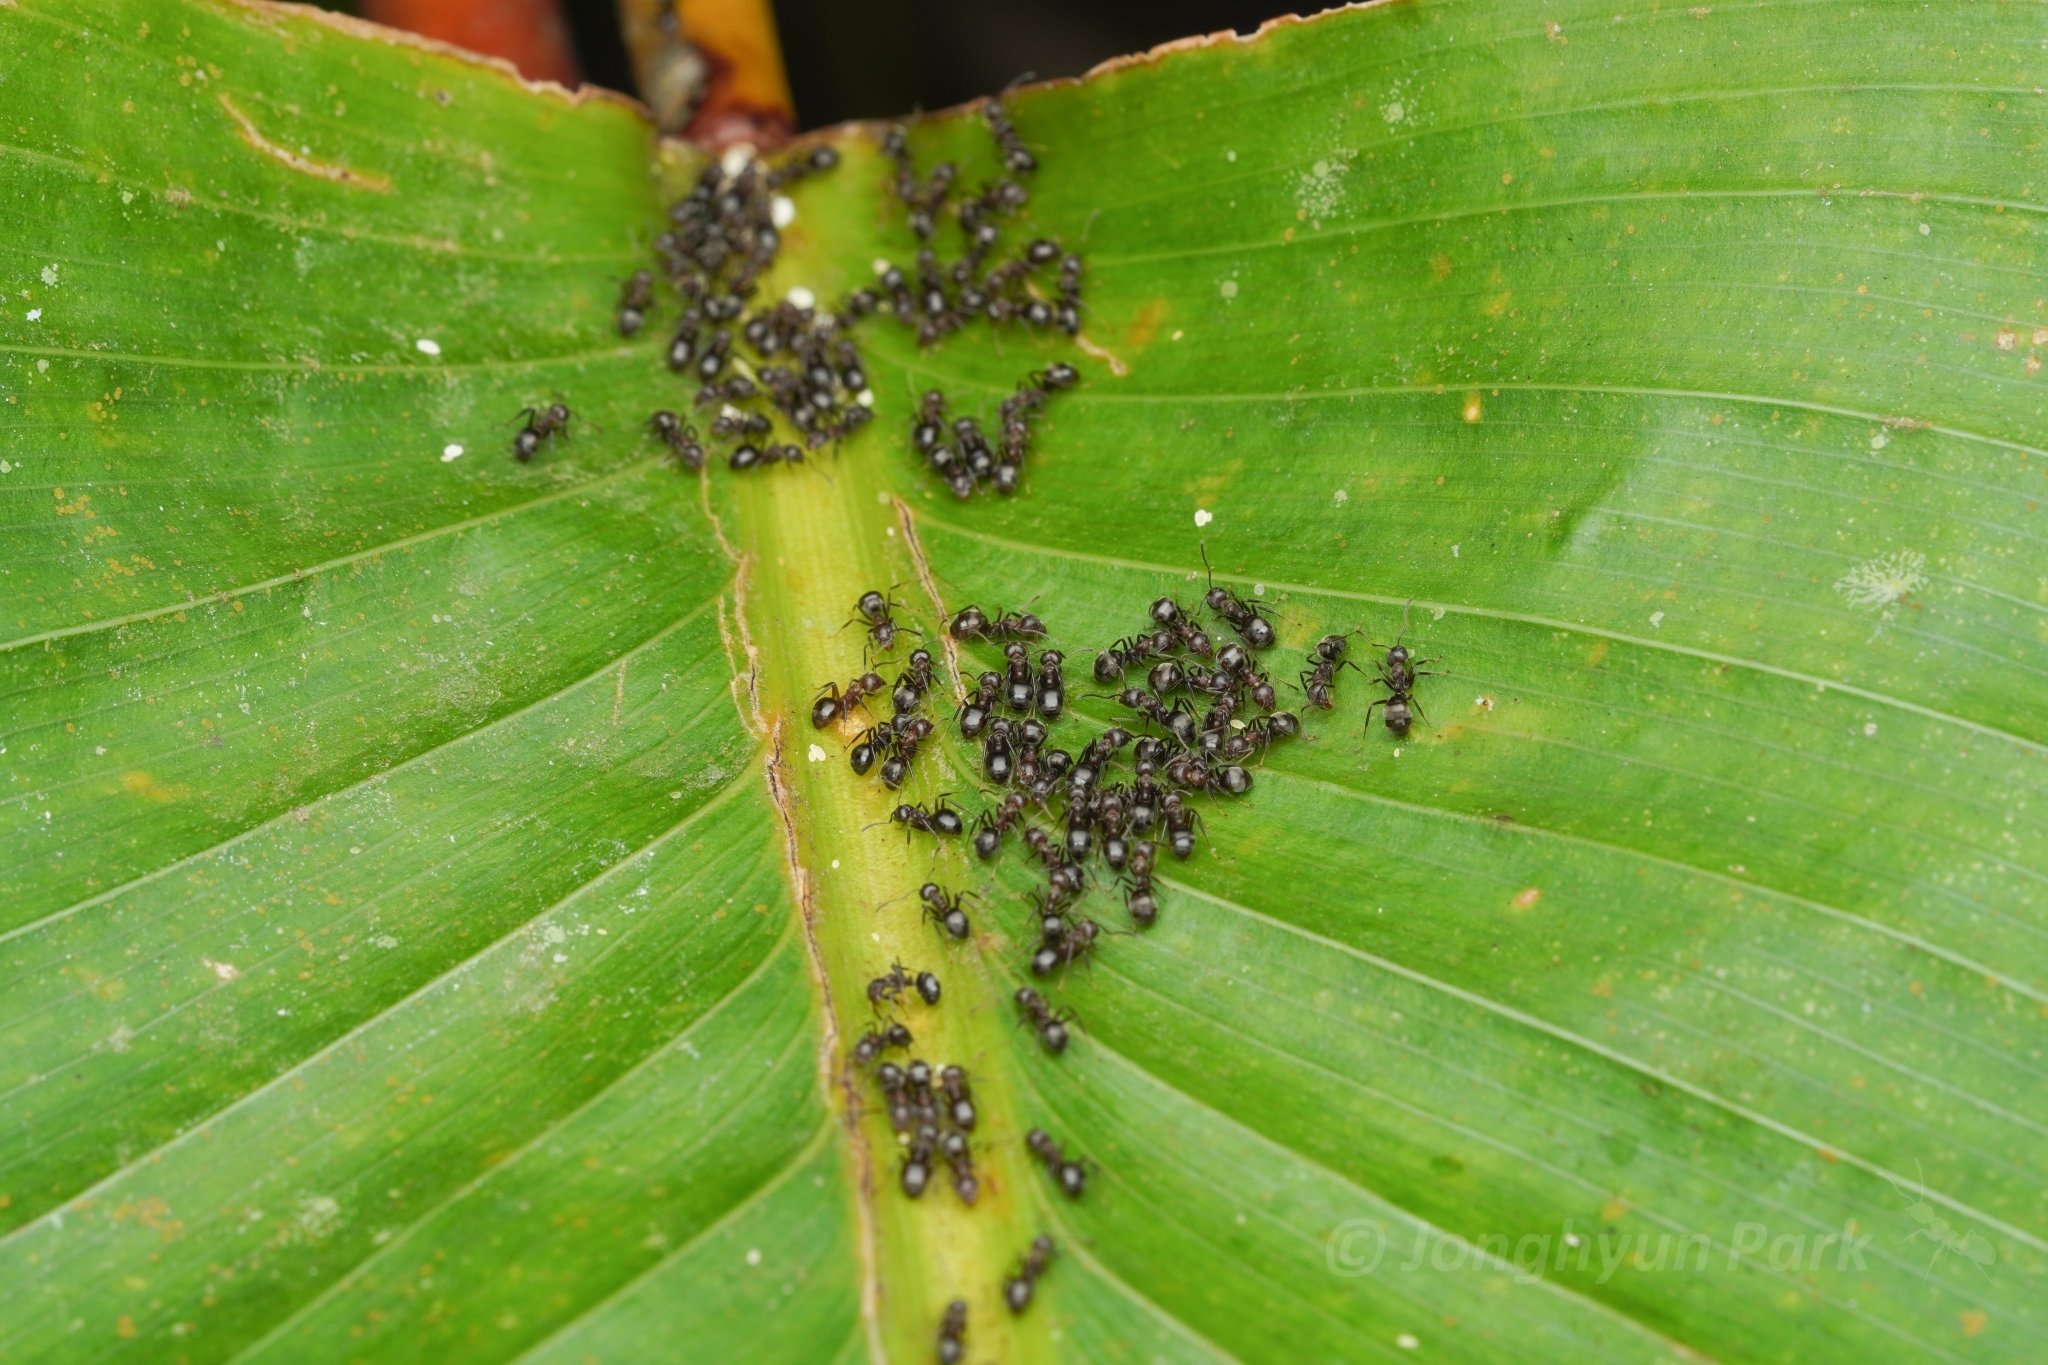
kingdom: Animalia
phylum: Arthropoda
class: Insecta
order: Hymenoptera
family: Formicidae
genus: Dolichoderus
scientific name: Dolichoderus thoracicus
